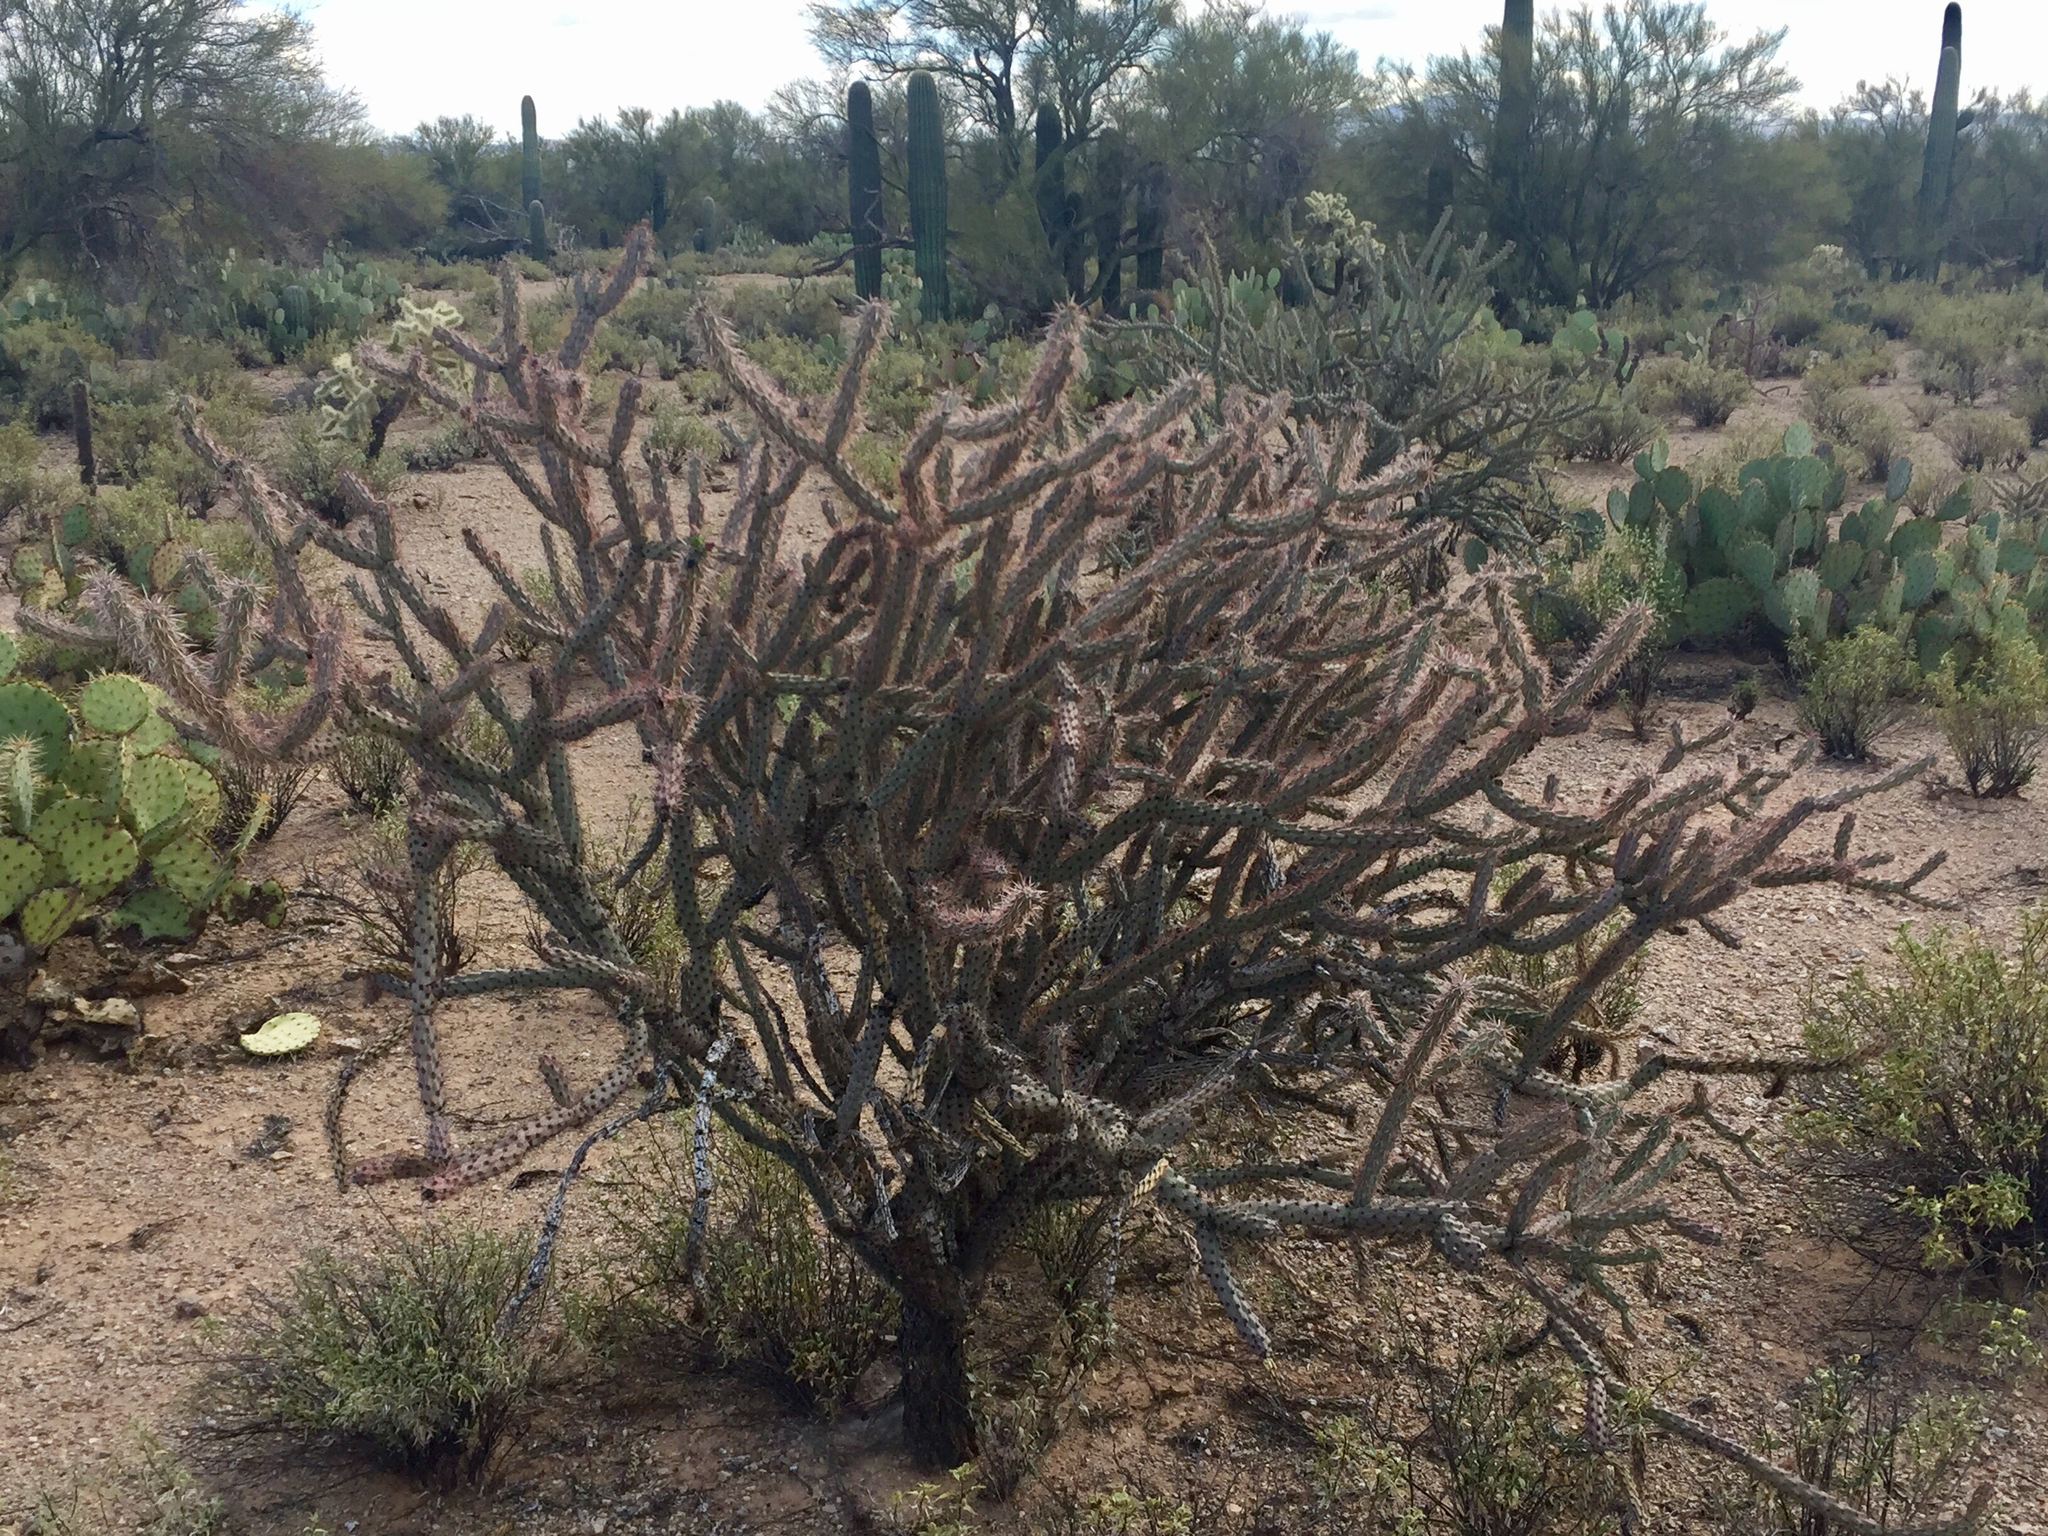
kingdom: Plantae
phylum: Tracheophyta
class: Magnoliopsida
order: Caryophyllales
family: Cactaceae
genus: Cylindropuntia
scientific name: Cylindropuntia acanthocarpa
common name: Buckhorn cholla
